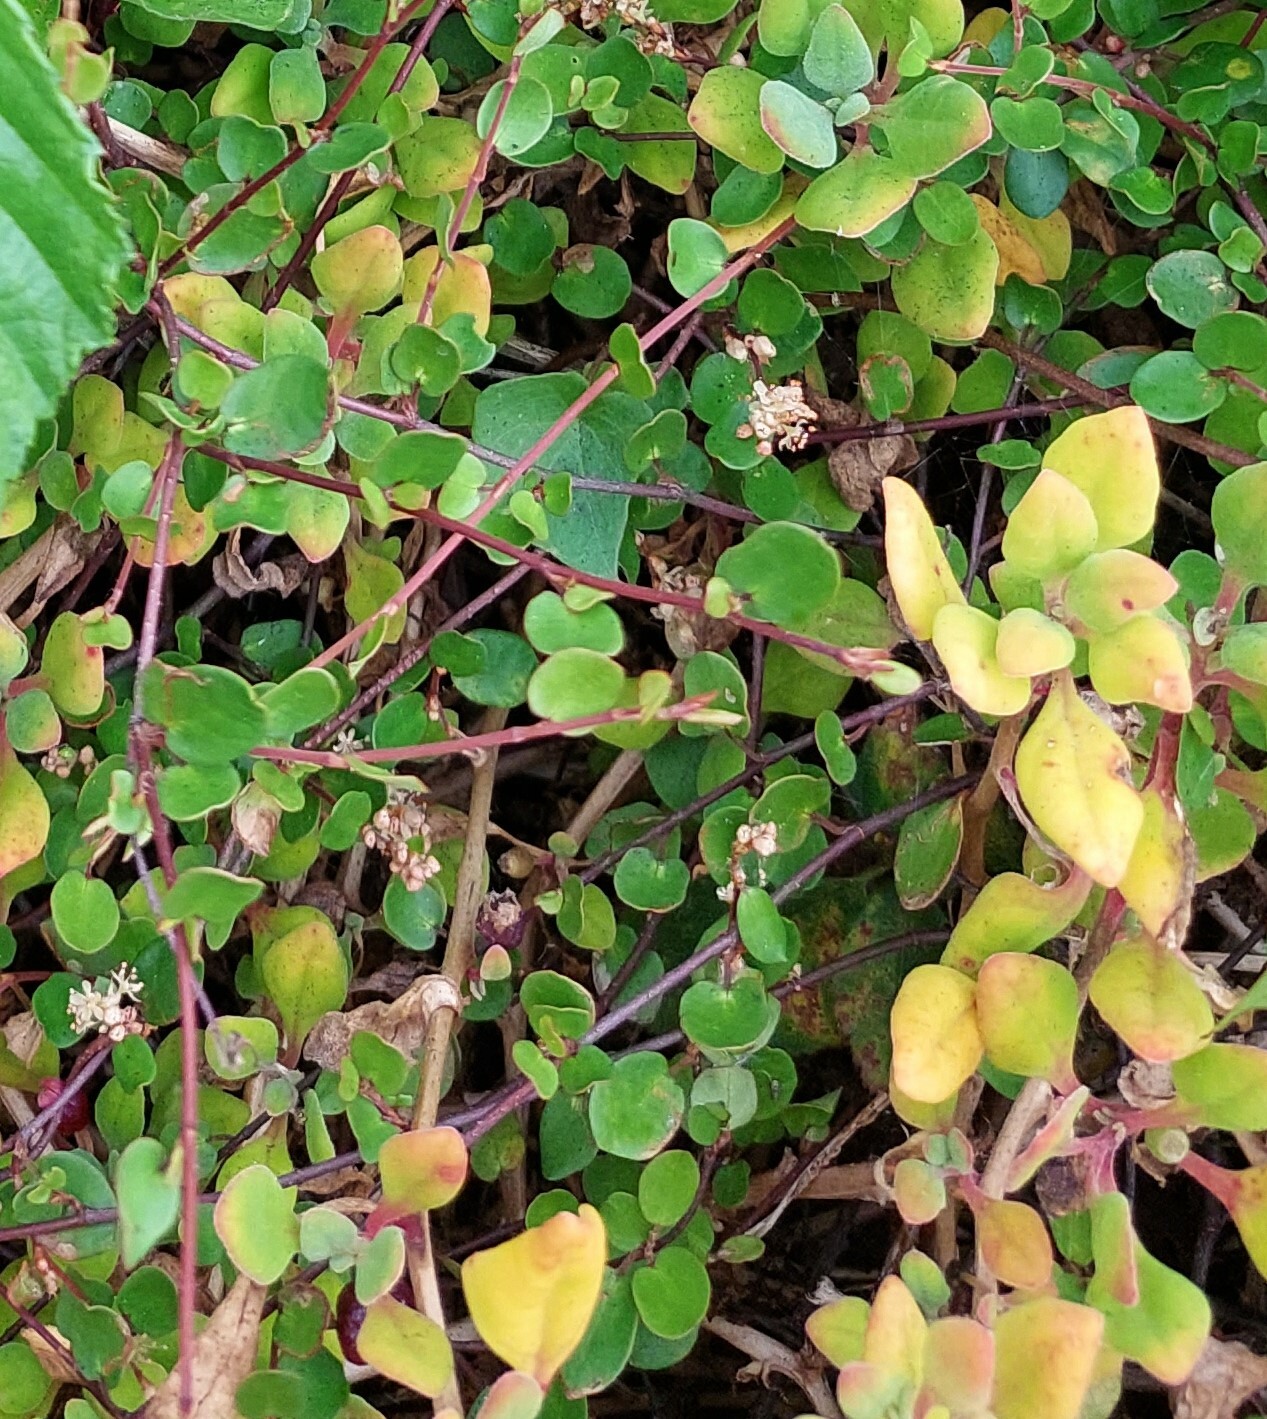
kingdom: Plantae
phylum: Tracheophyta
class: Magnoliopsida
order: Caryophyllales
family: Polygonaceae
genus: Muehlenbeckia
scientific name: Muehlenbeckia complexa
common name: Wireplant
